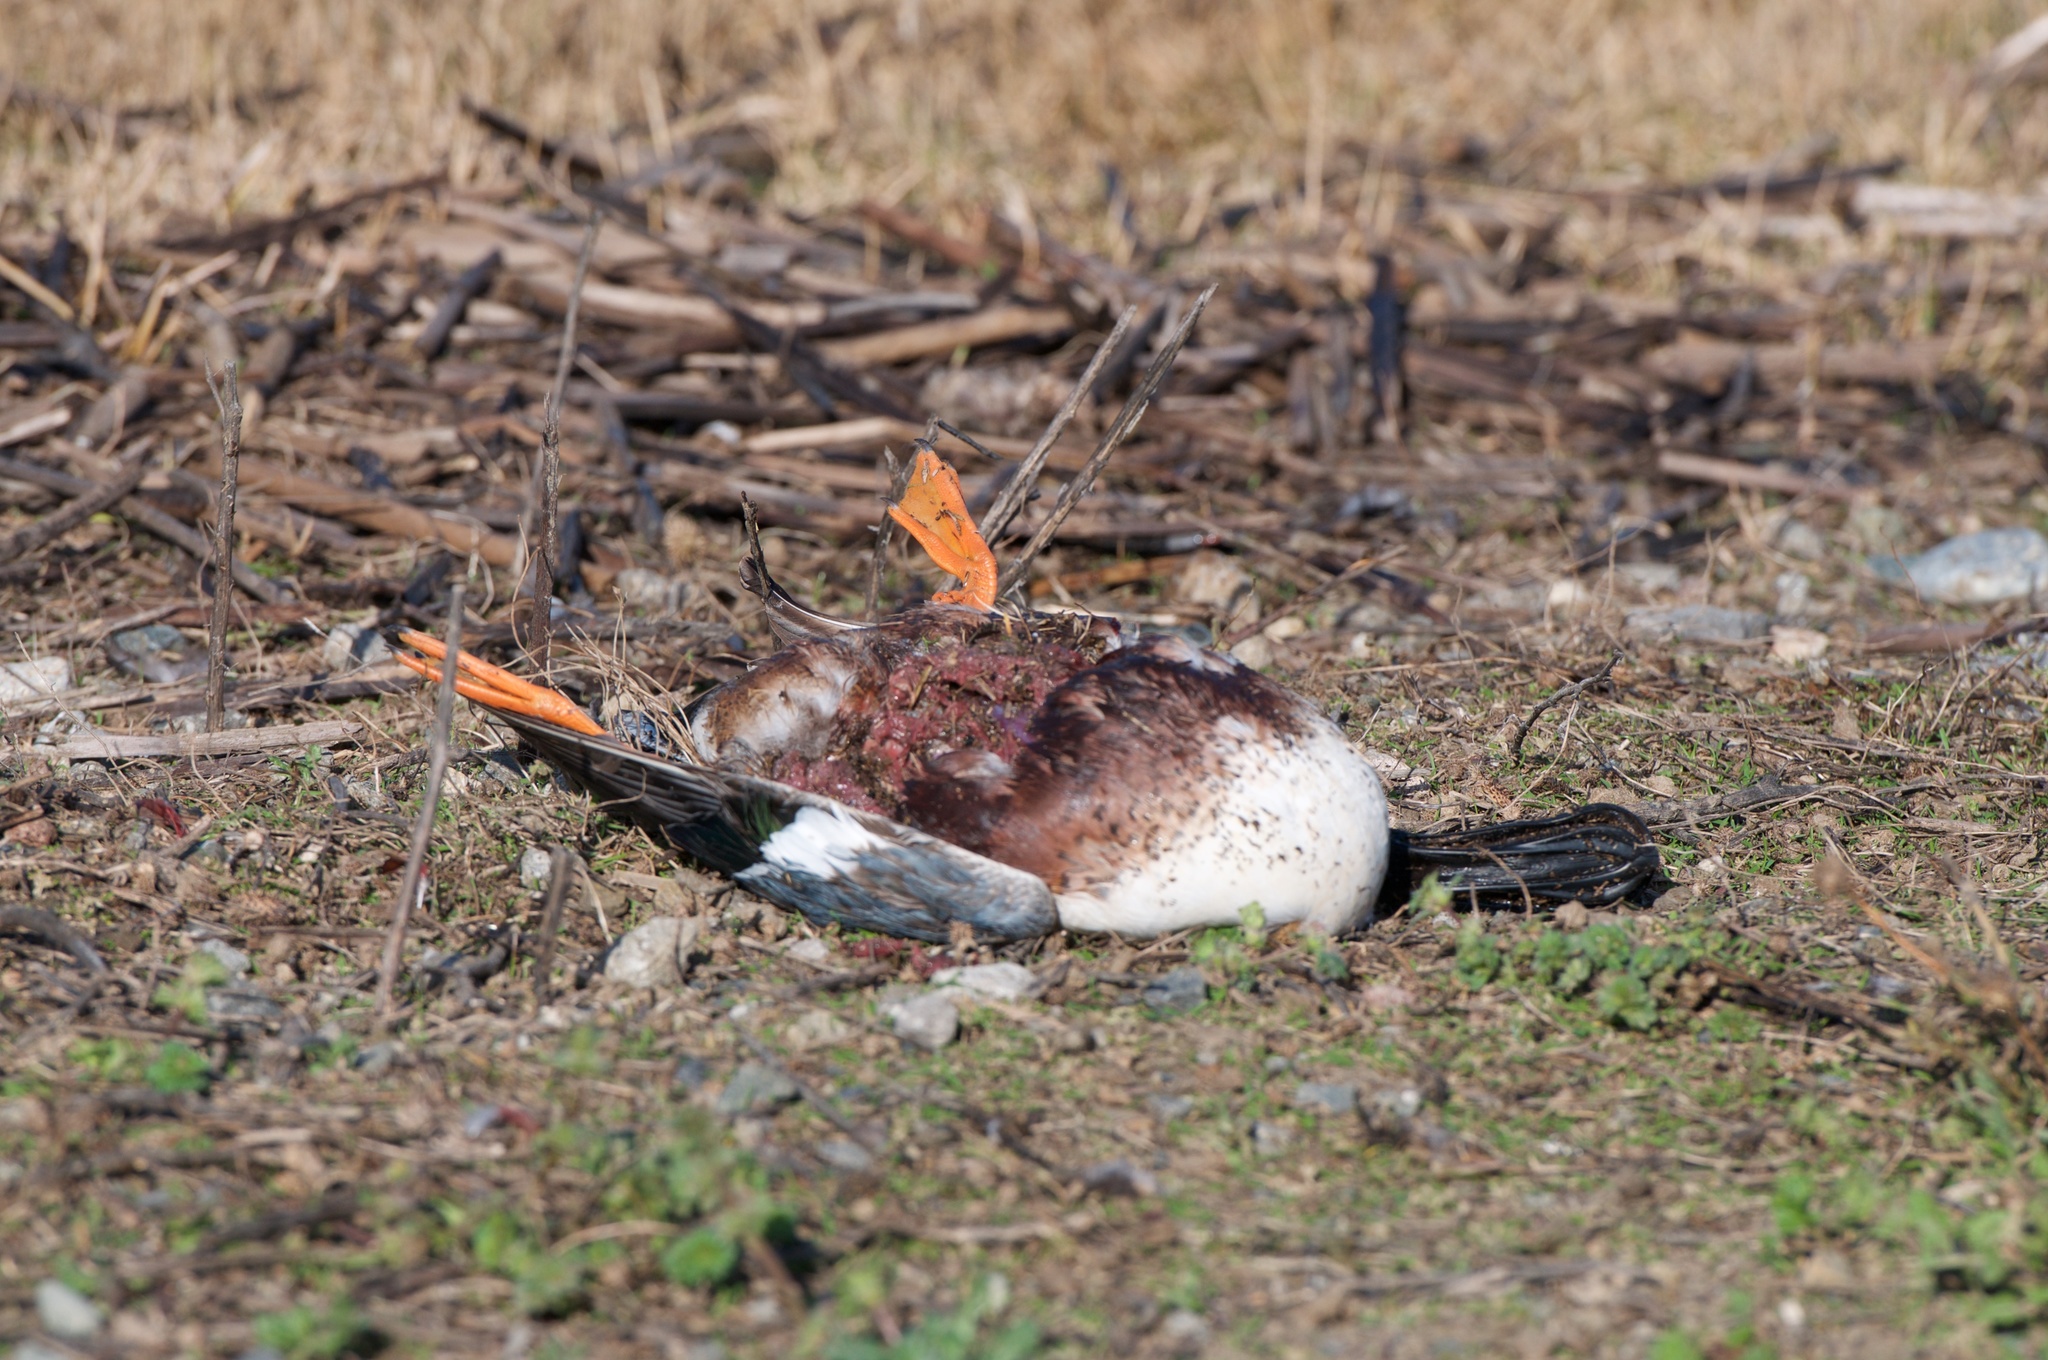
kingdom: Animalia
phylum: Chordata
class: Aves
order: Anseriformes
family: Anatidae
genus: Spatula
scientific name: Spatula clypeata
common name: Northern shoveler
